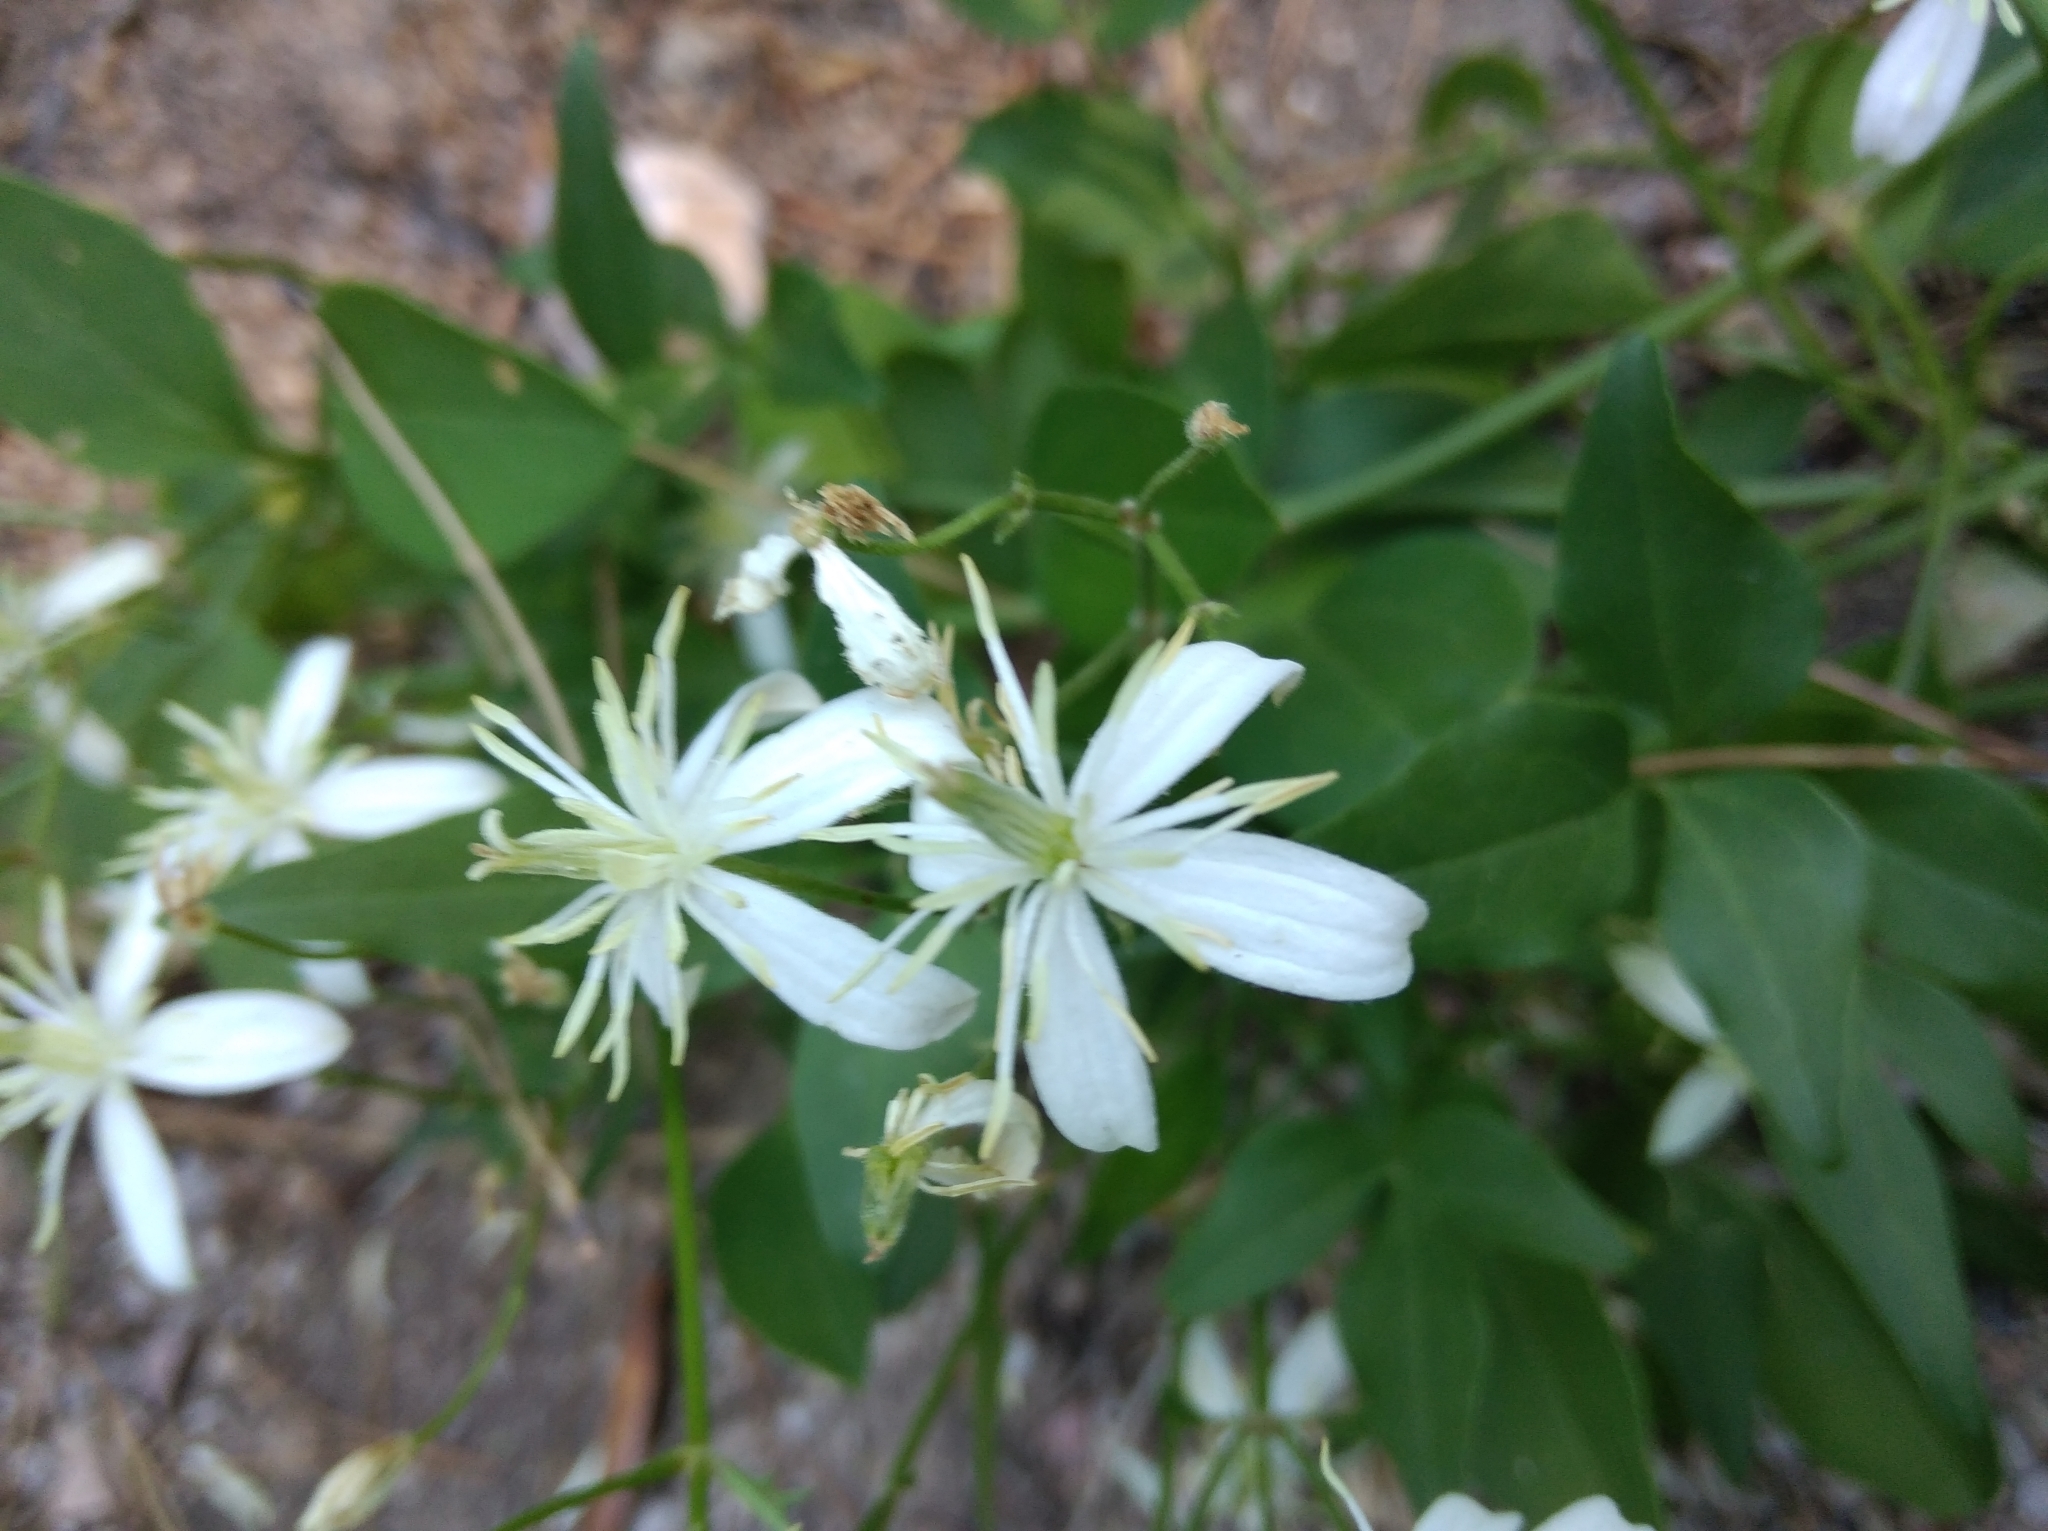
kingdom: Plantae
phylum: Tracheophyta
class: Magnoliopsida
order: Ranunculales
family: Ranunculaceae
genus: Clematis
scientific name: Clematis flammula
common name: Virgin's-bower
